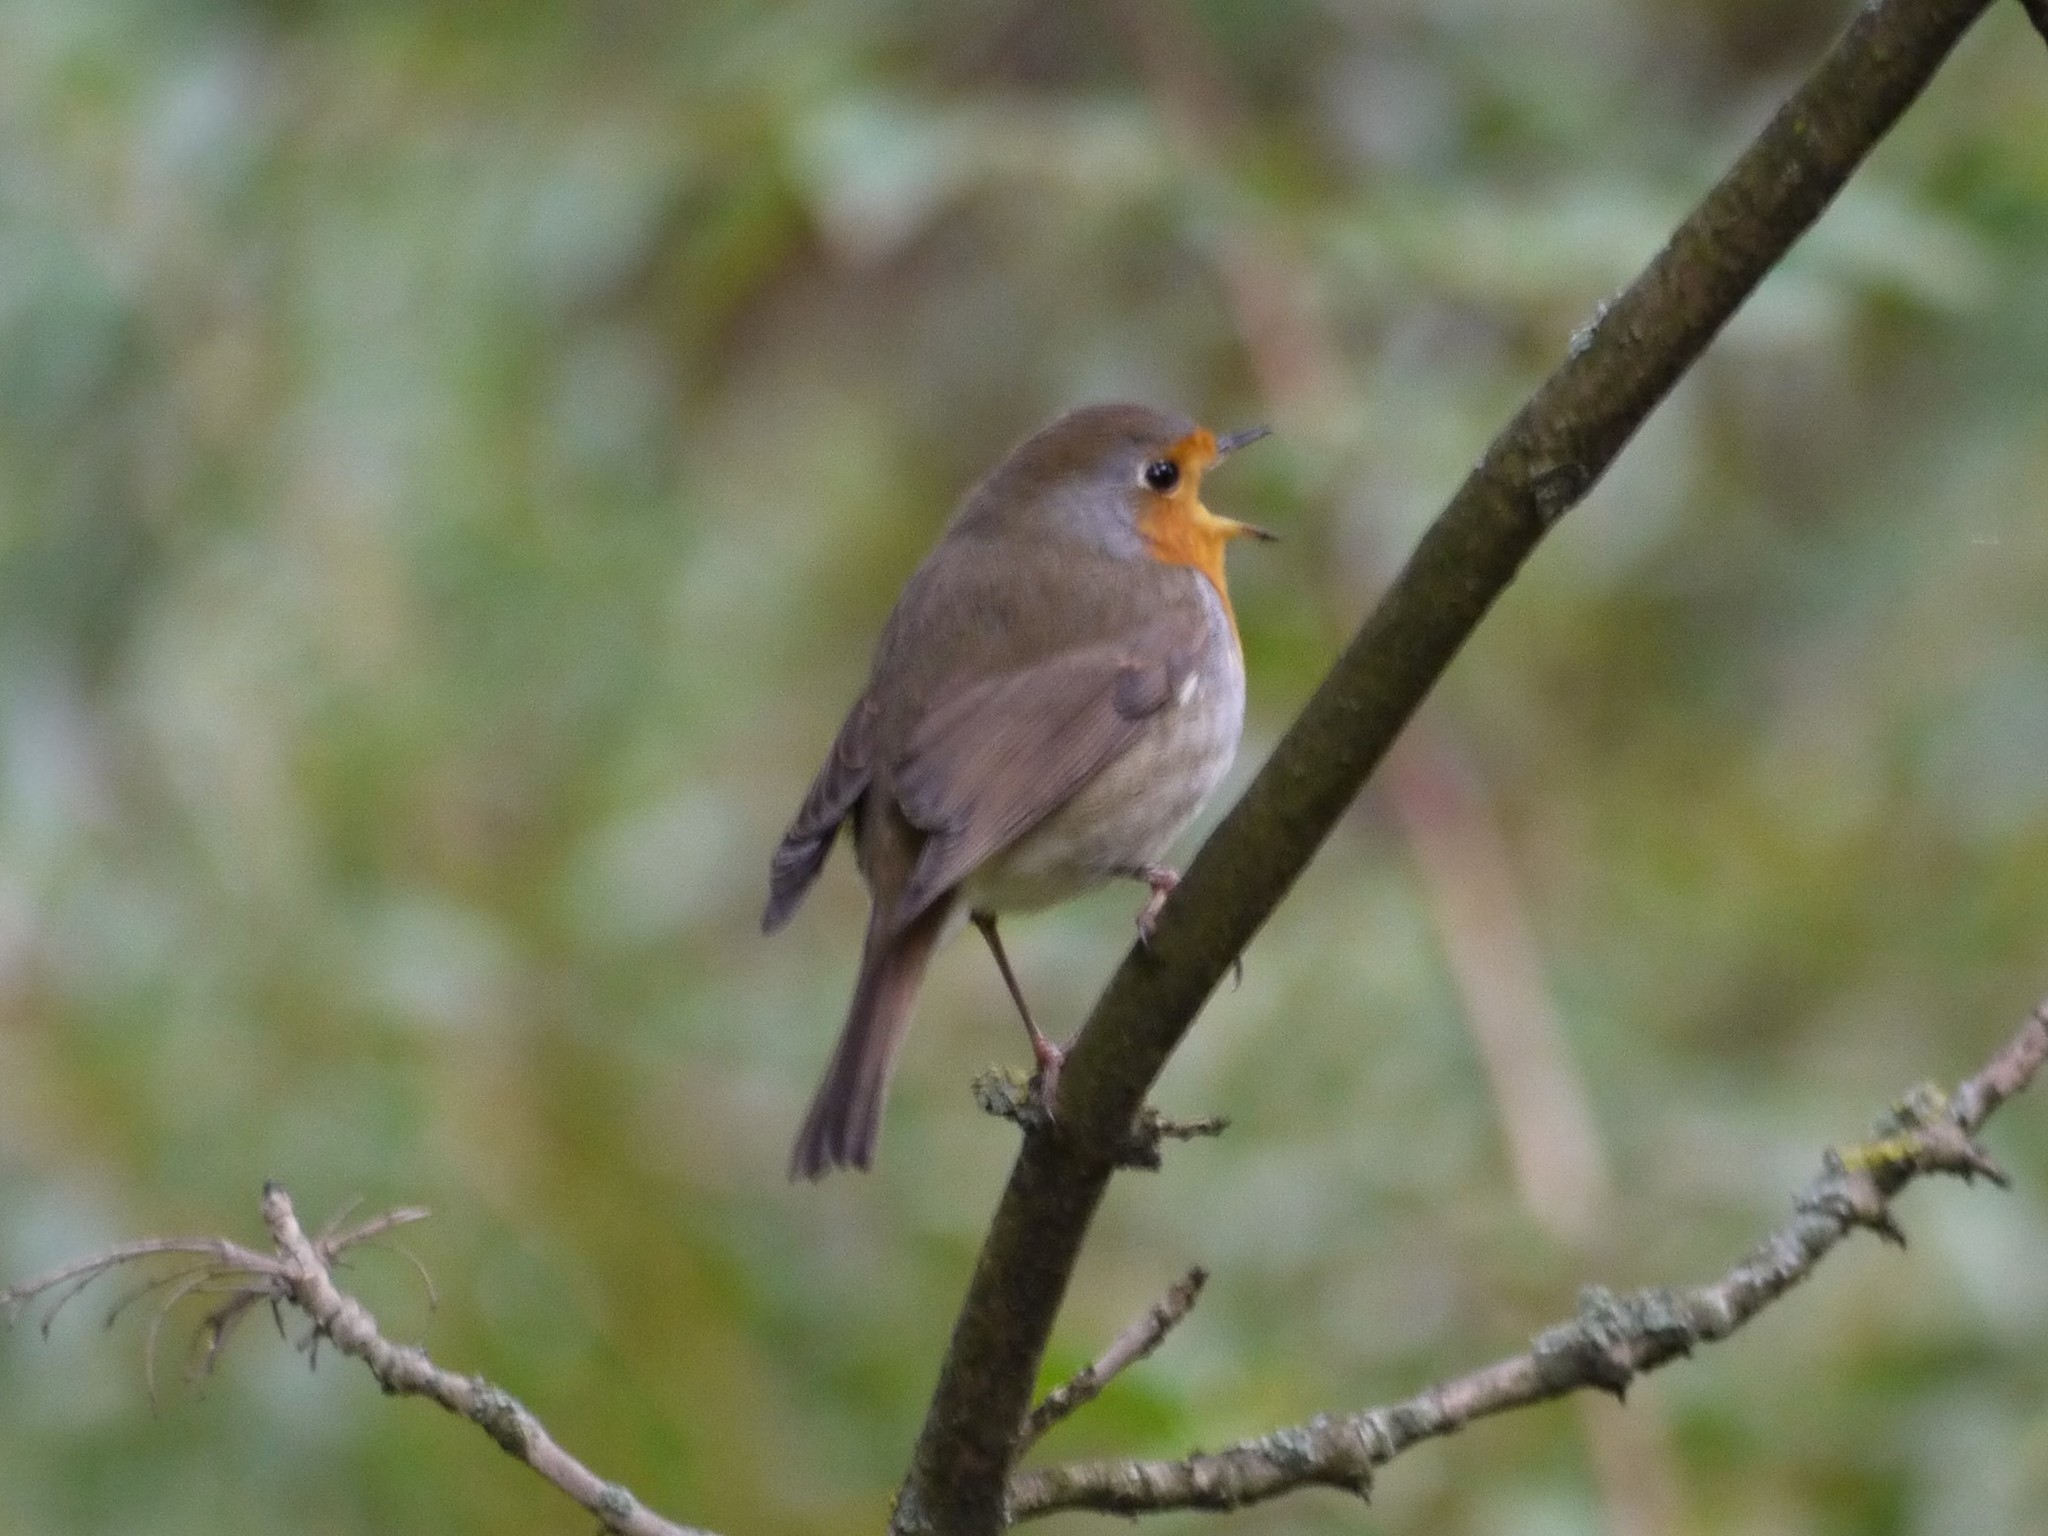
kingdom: Animalia
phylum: Chordata
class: Aves
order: Passeriformes
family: Muscicapidae
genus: Erithacus
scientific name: Erithacus rubecula
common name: European robin
